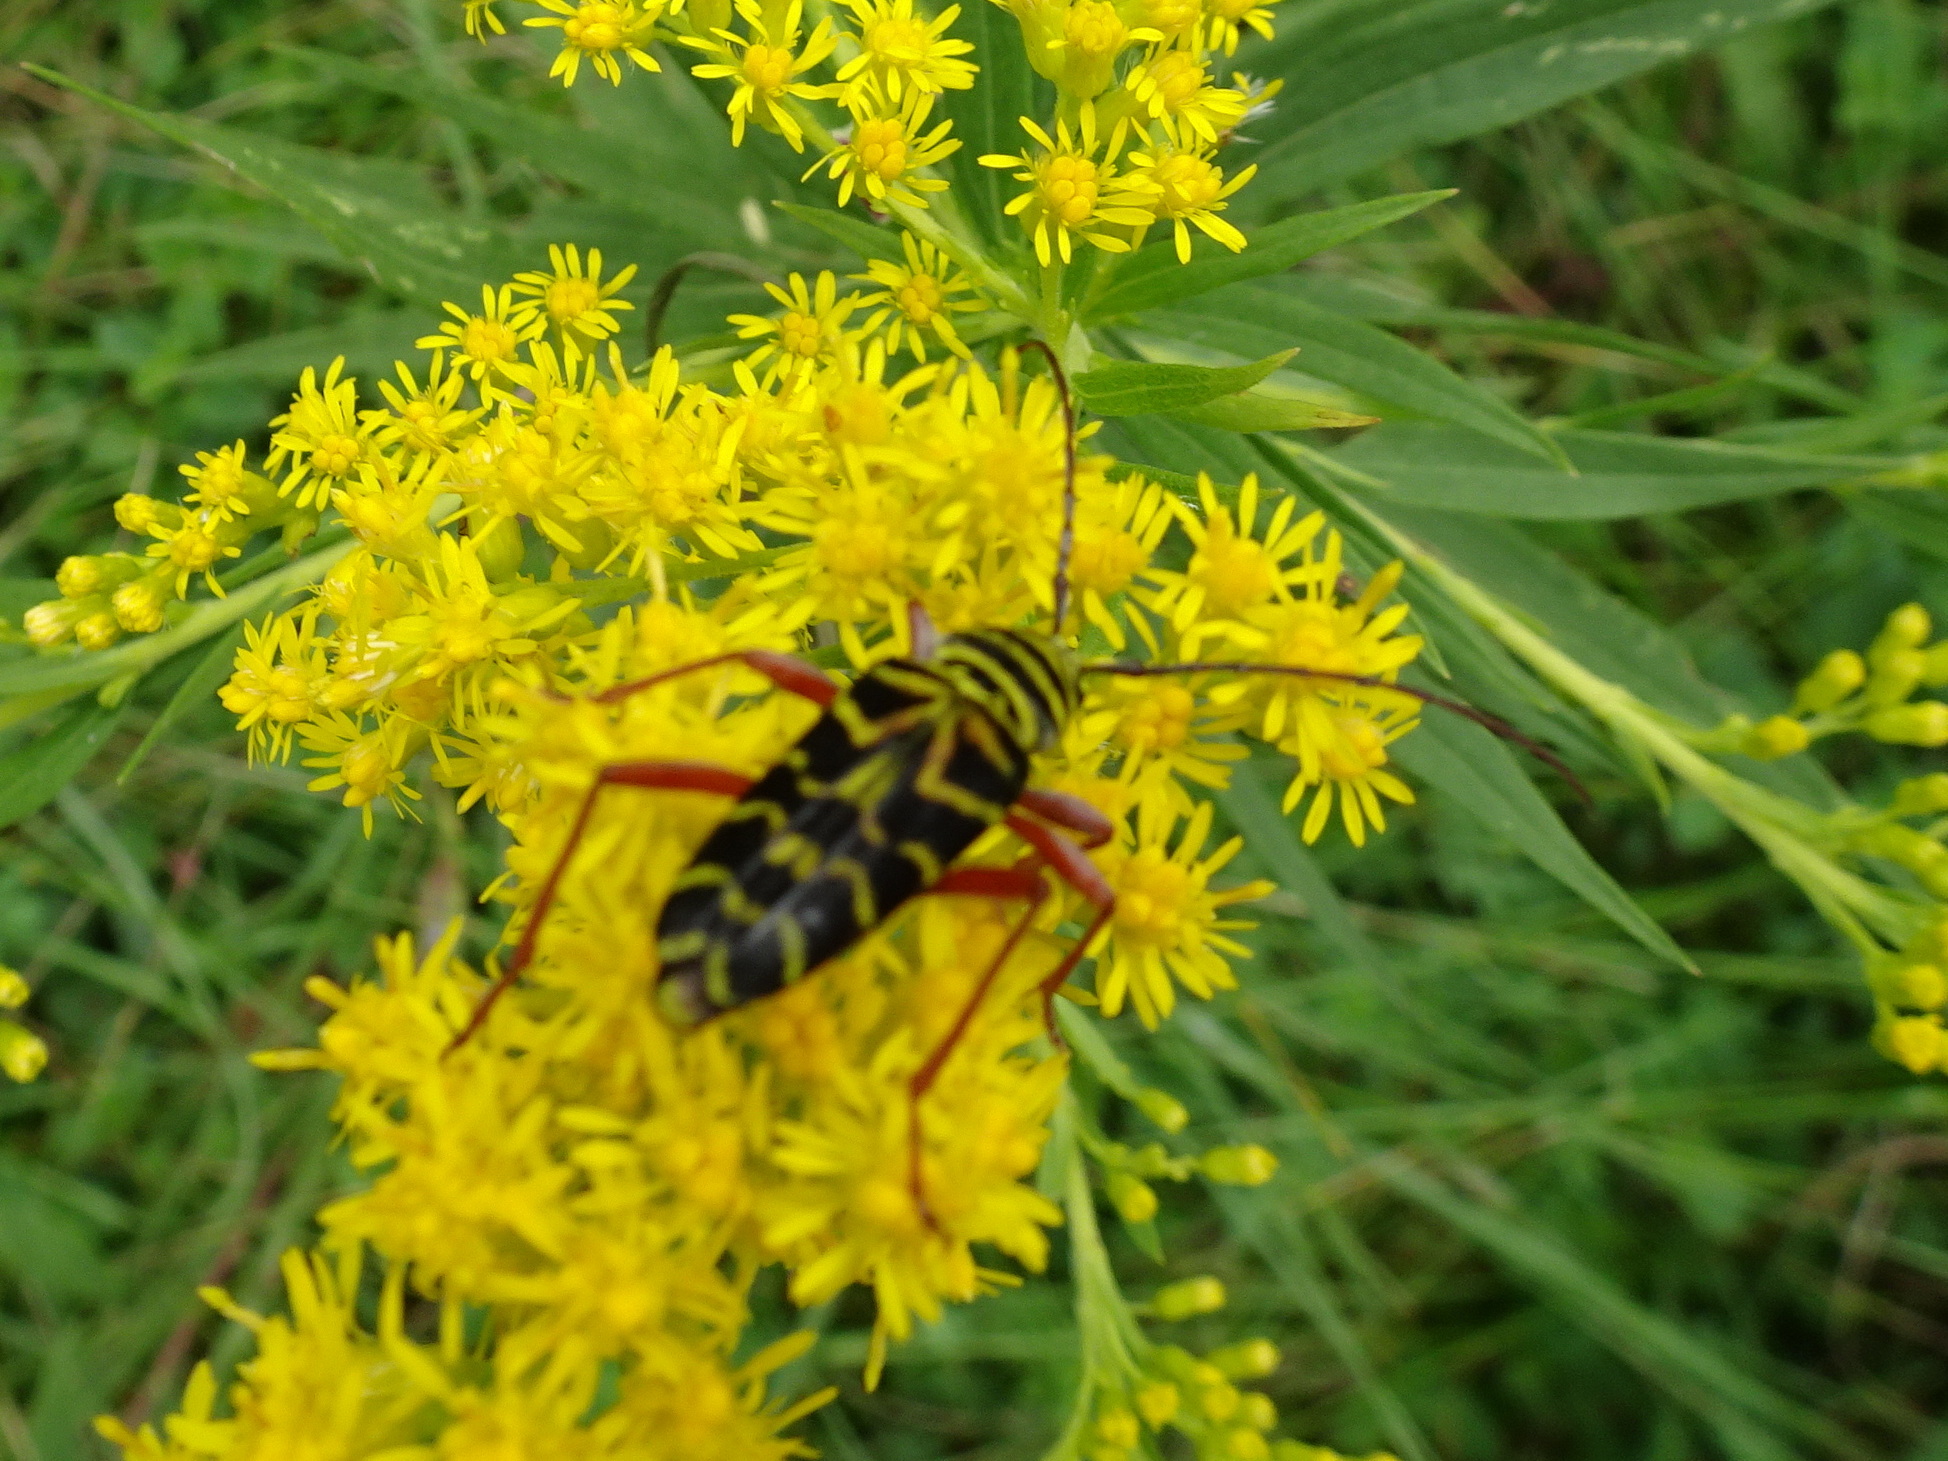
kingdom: Animalia
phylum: Arthropoda
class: Insecta
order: Coleoptera
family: Cerambycidae
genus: Megacyllene
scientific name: Megacyllene robiniae
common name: Locust borer
